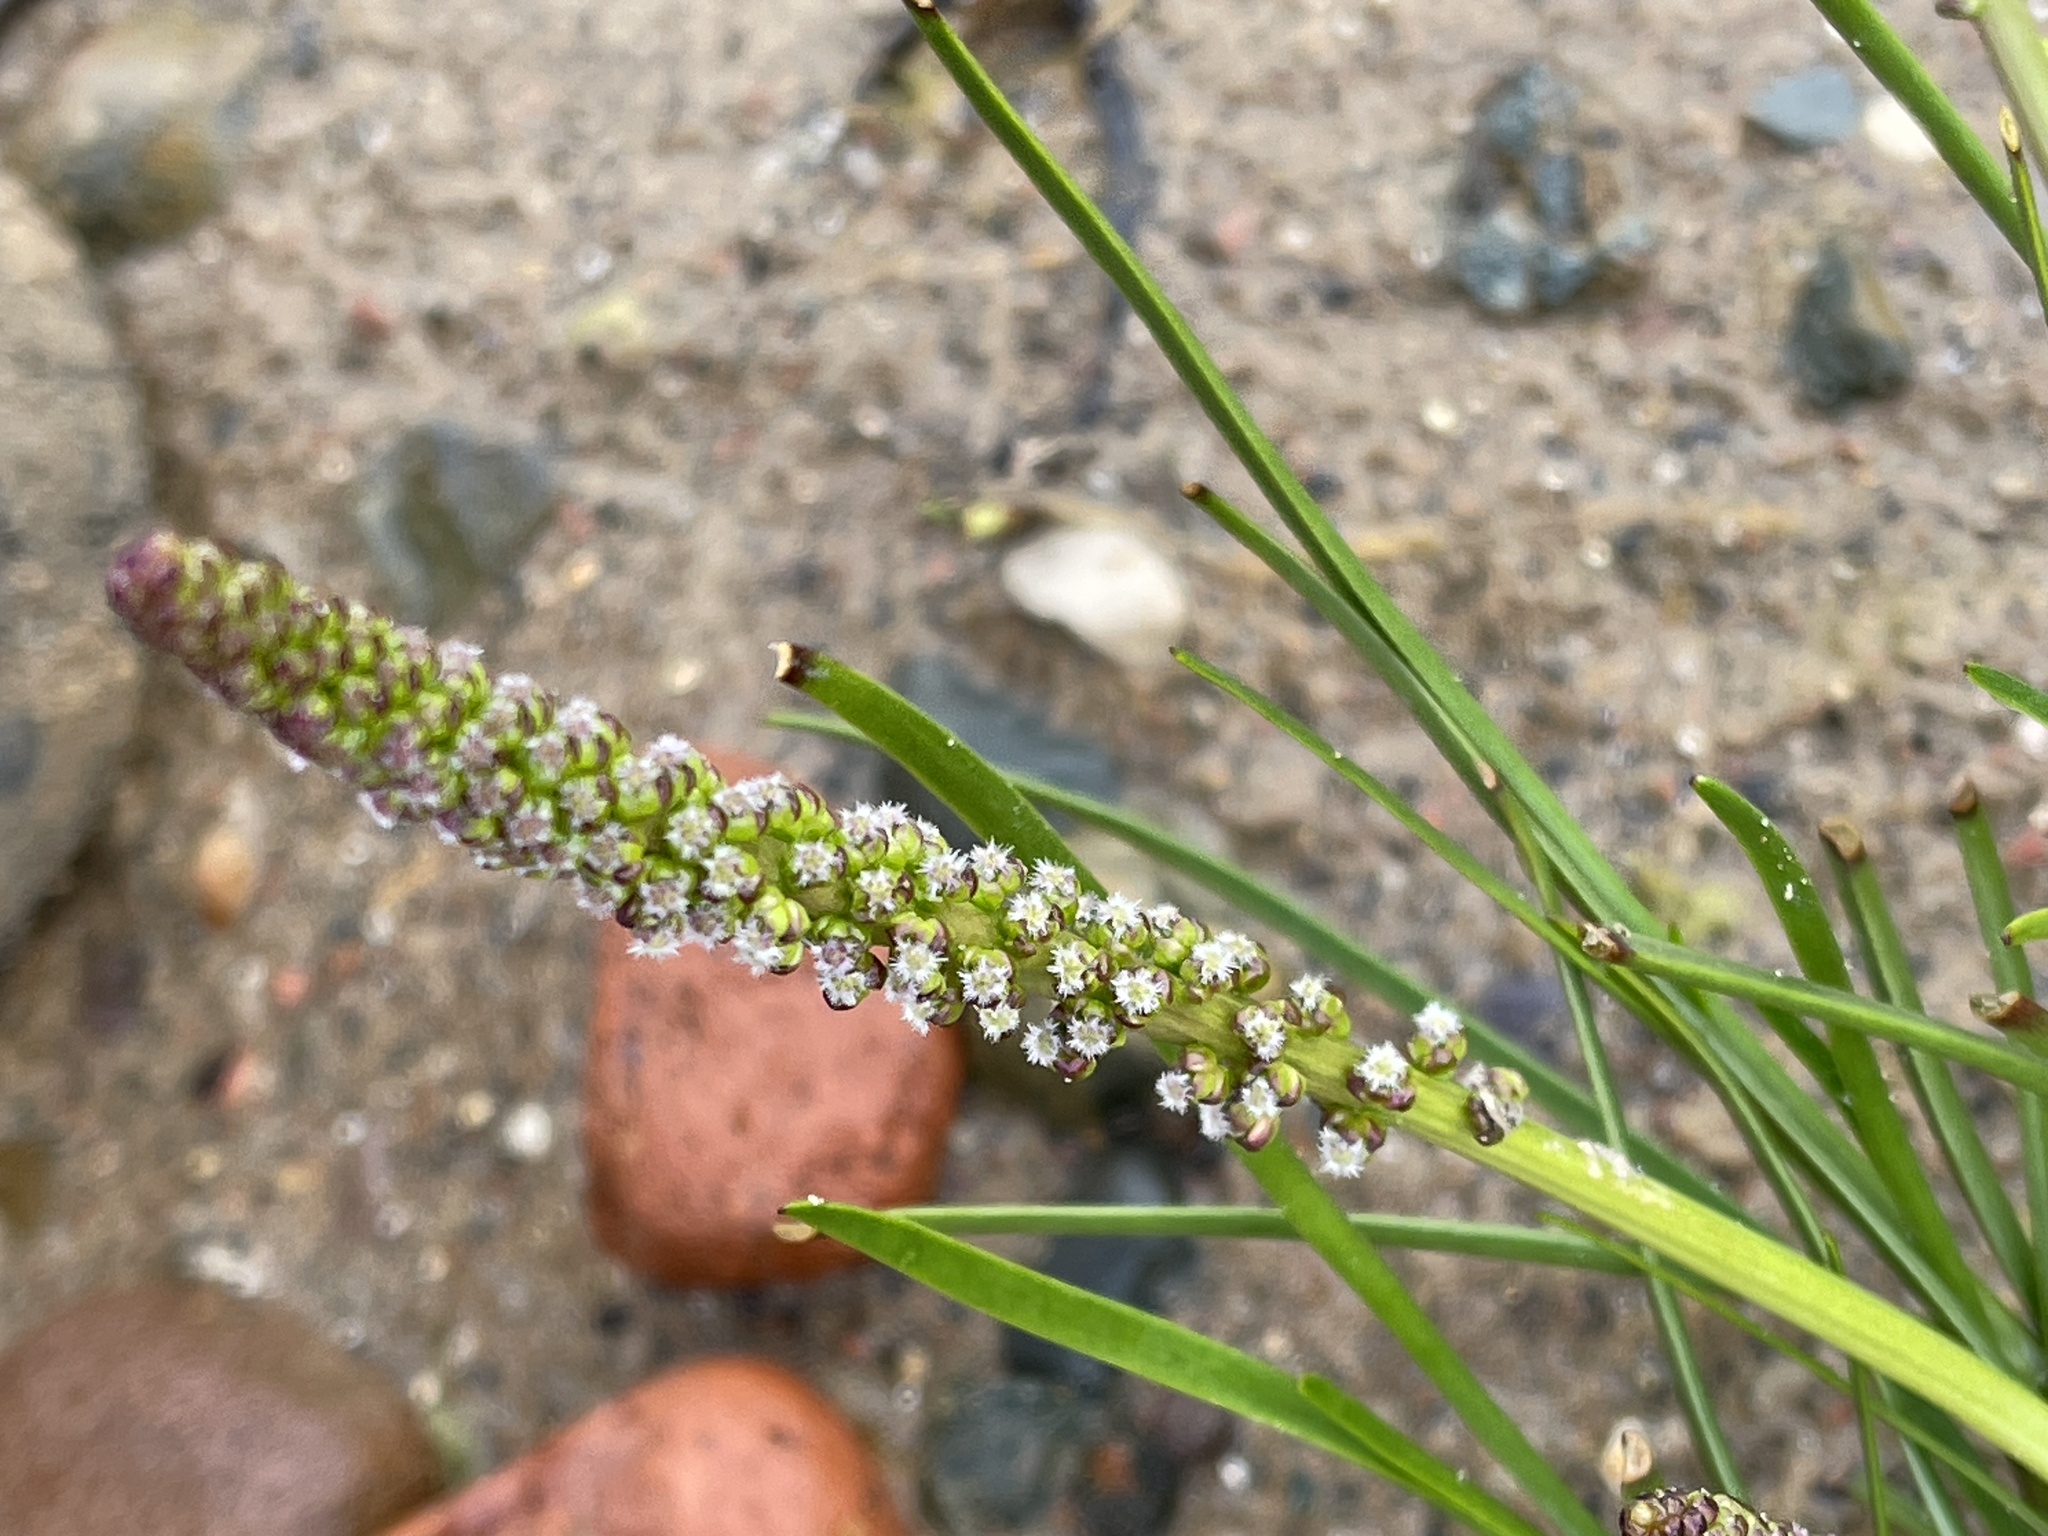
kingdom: Plantae
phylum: Tracheophyta
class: Liliopsida
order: Alismatales
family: Juncaginaceae
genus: Triglochin
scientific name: Triglochin maritima
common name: Sea arrowgrass
